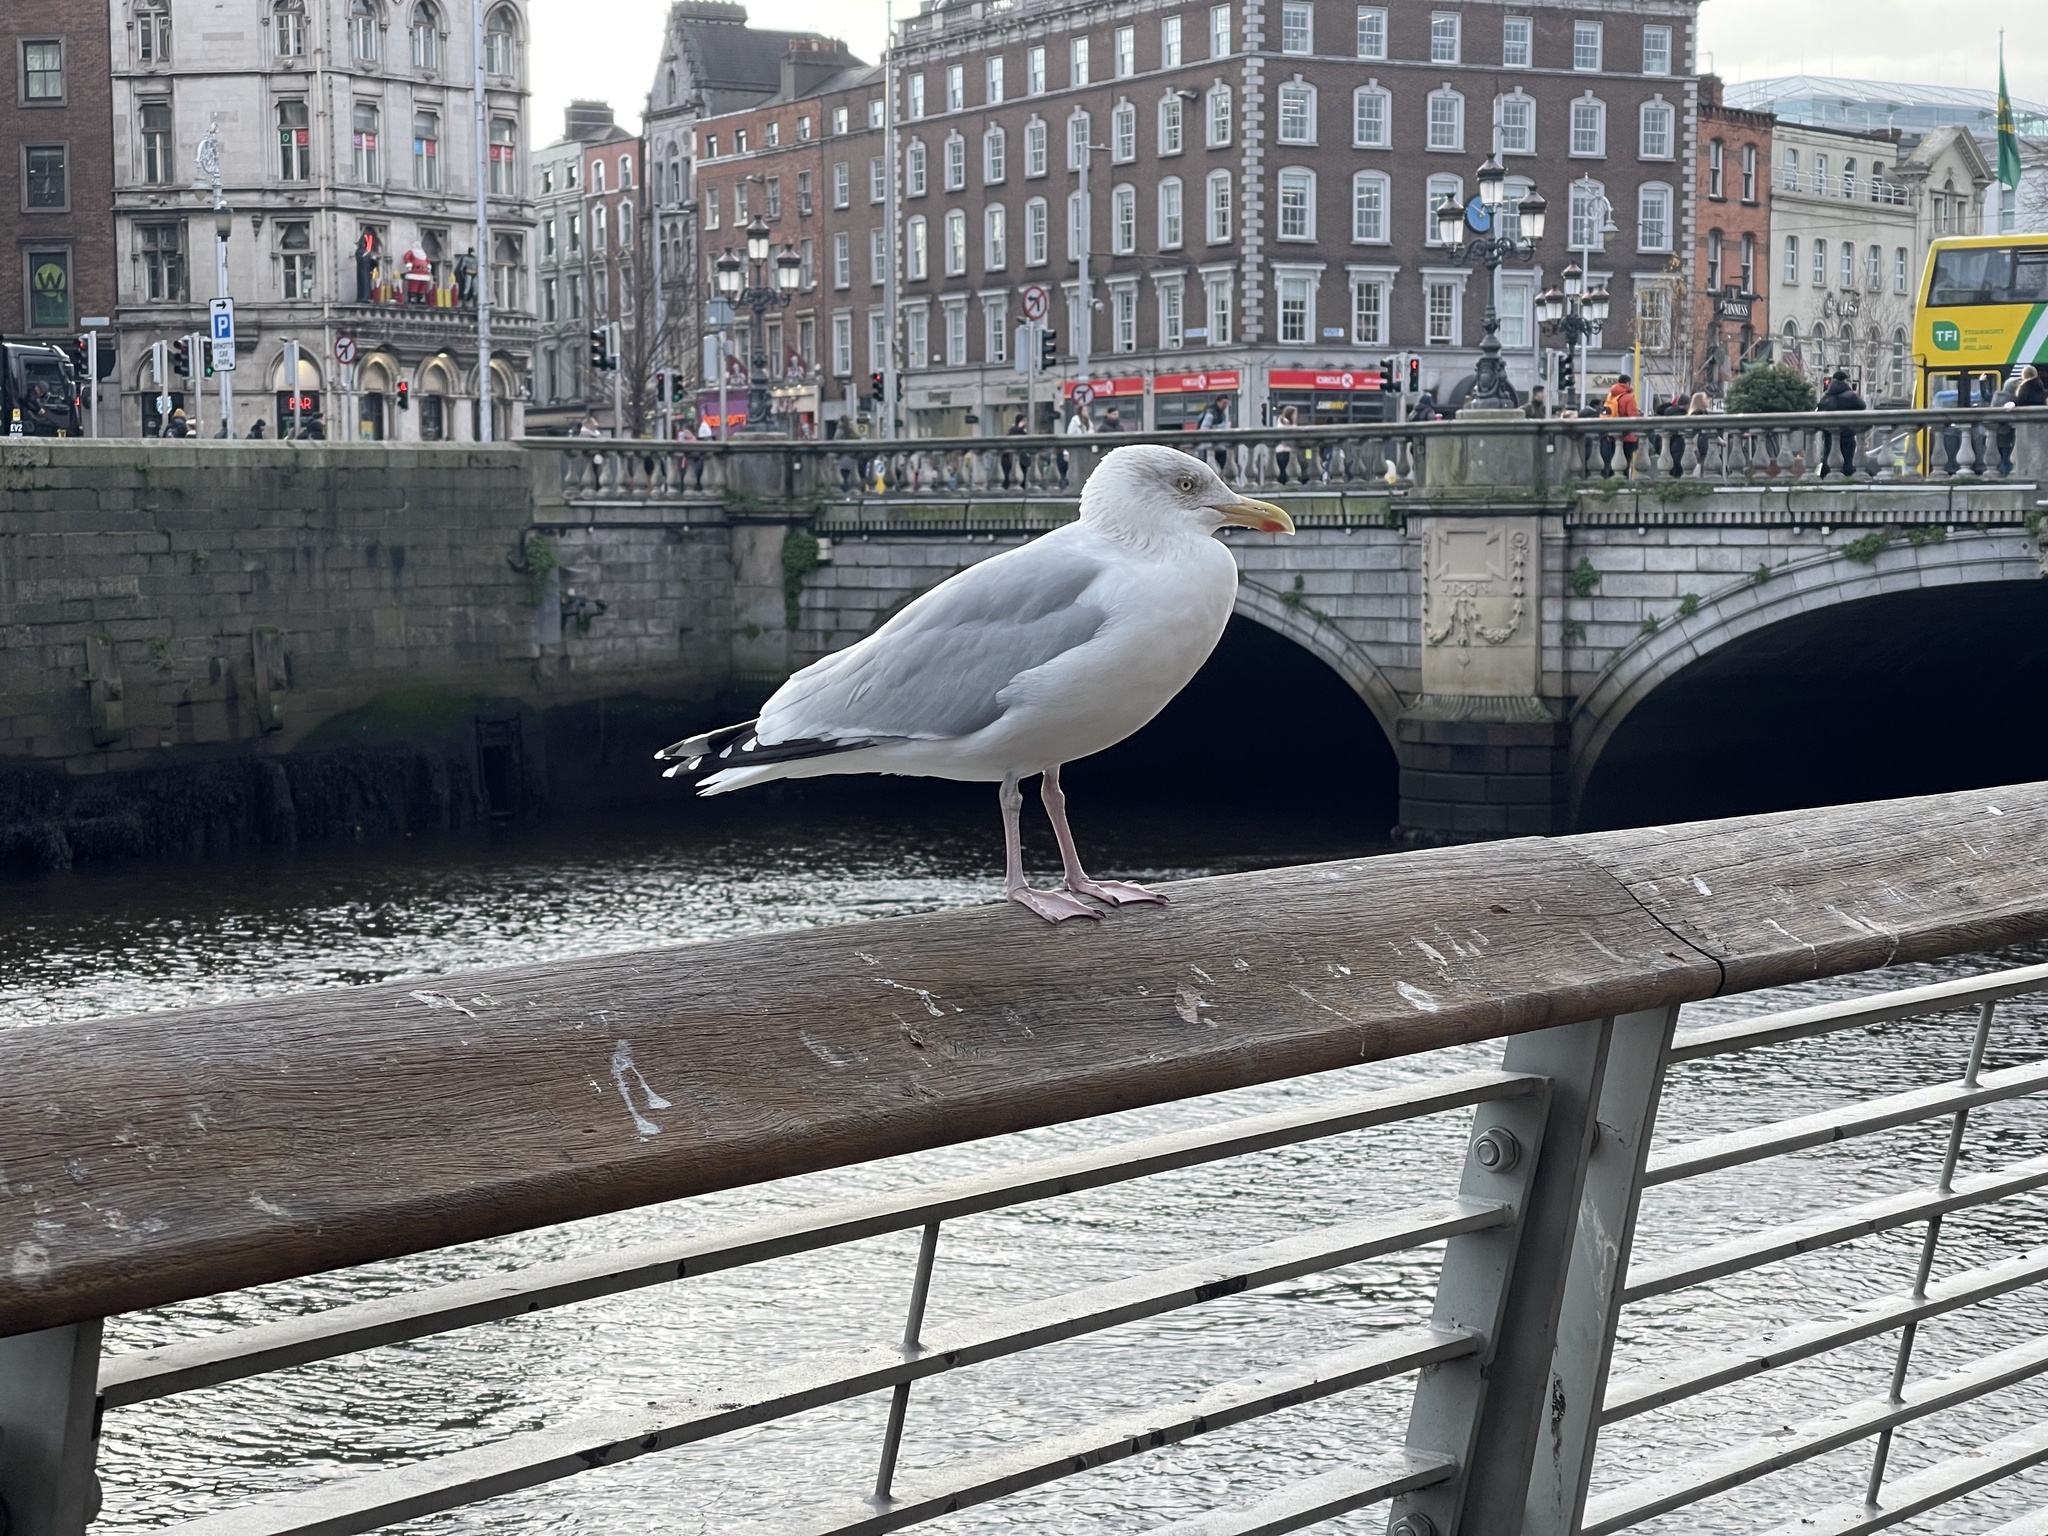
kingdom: Animalia
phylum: Chordata
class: Aves
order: Charadriiformes
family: Laridae
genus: Larus
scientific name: Larus argentatus
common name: Herring gull
